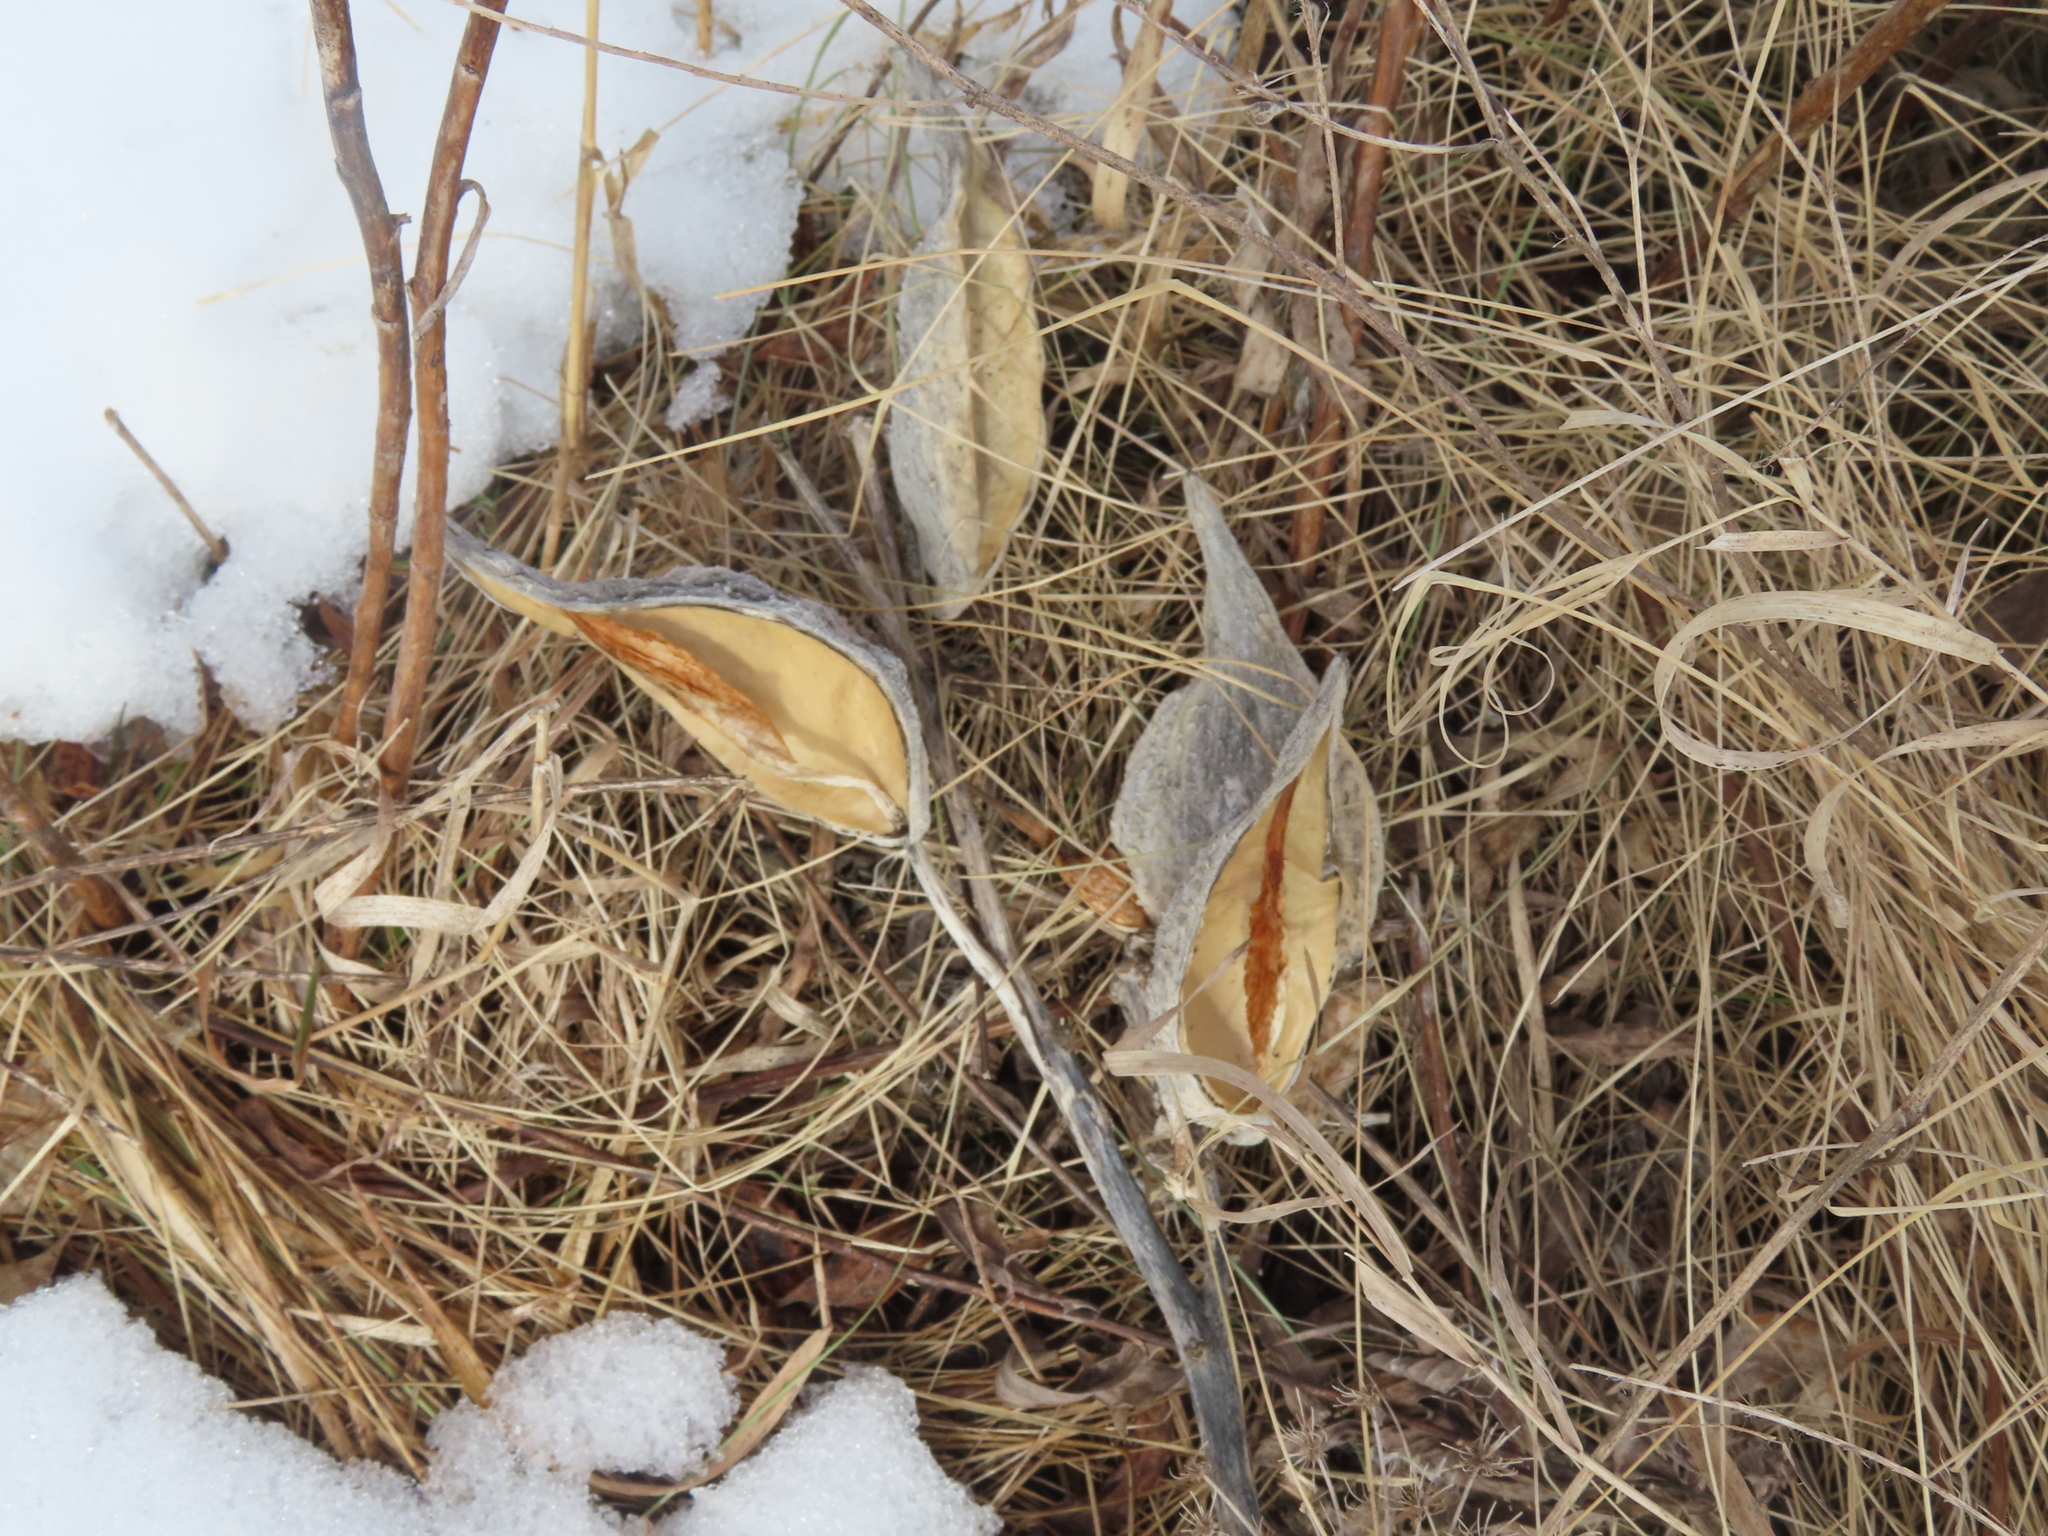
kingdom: Plantae
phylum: Tracheophyta
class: Magnoliopsida
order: Gentianales
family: Apocynaceae
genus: Asclepias
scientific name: Asclepias syriaca
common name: Common milkweed
